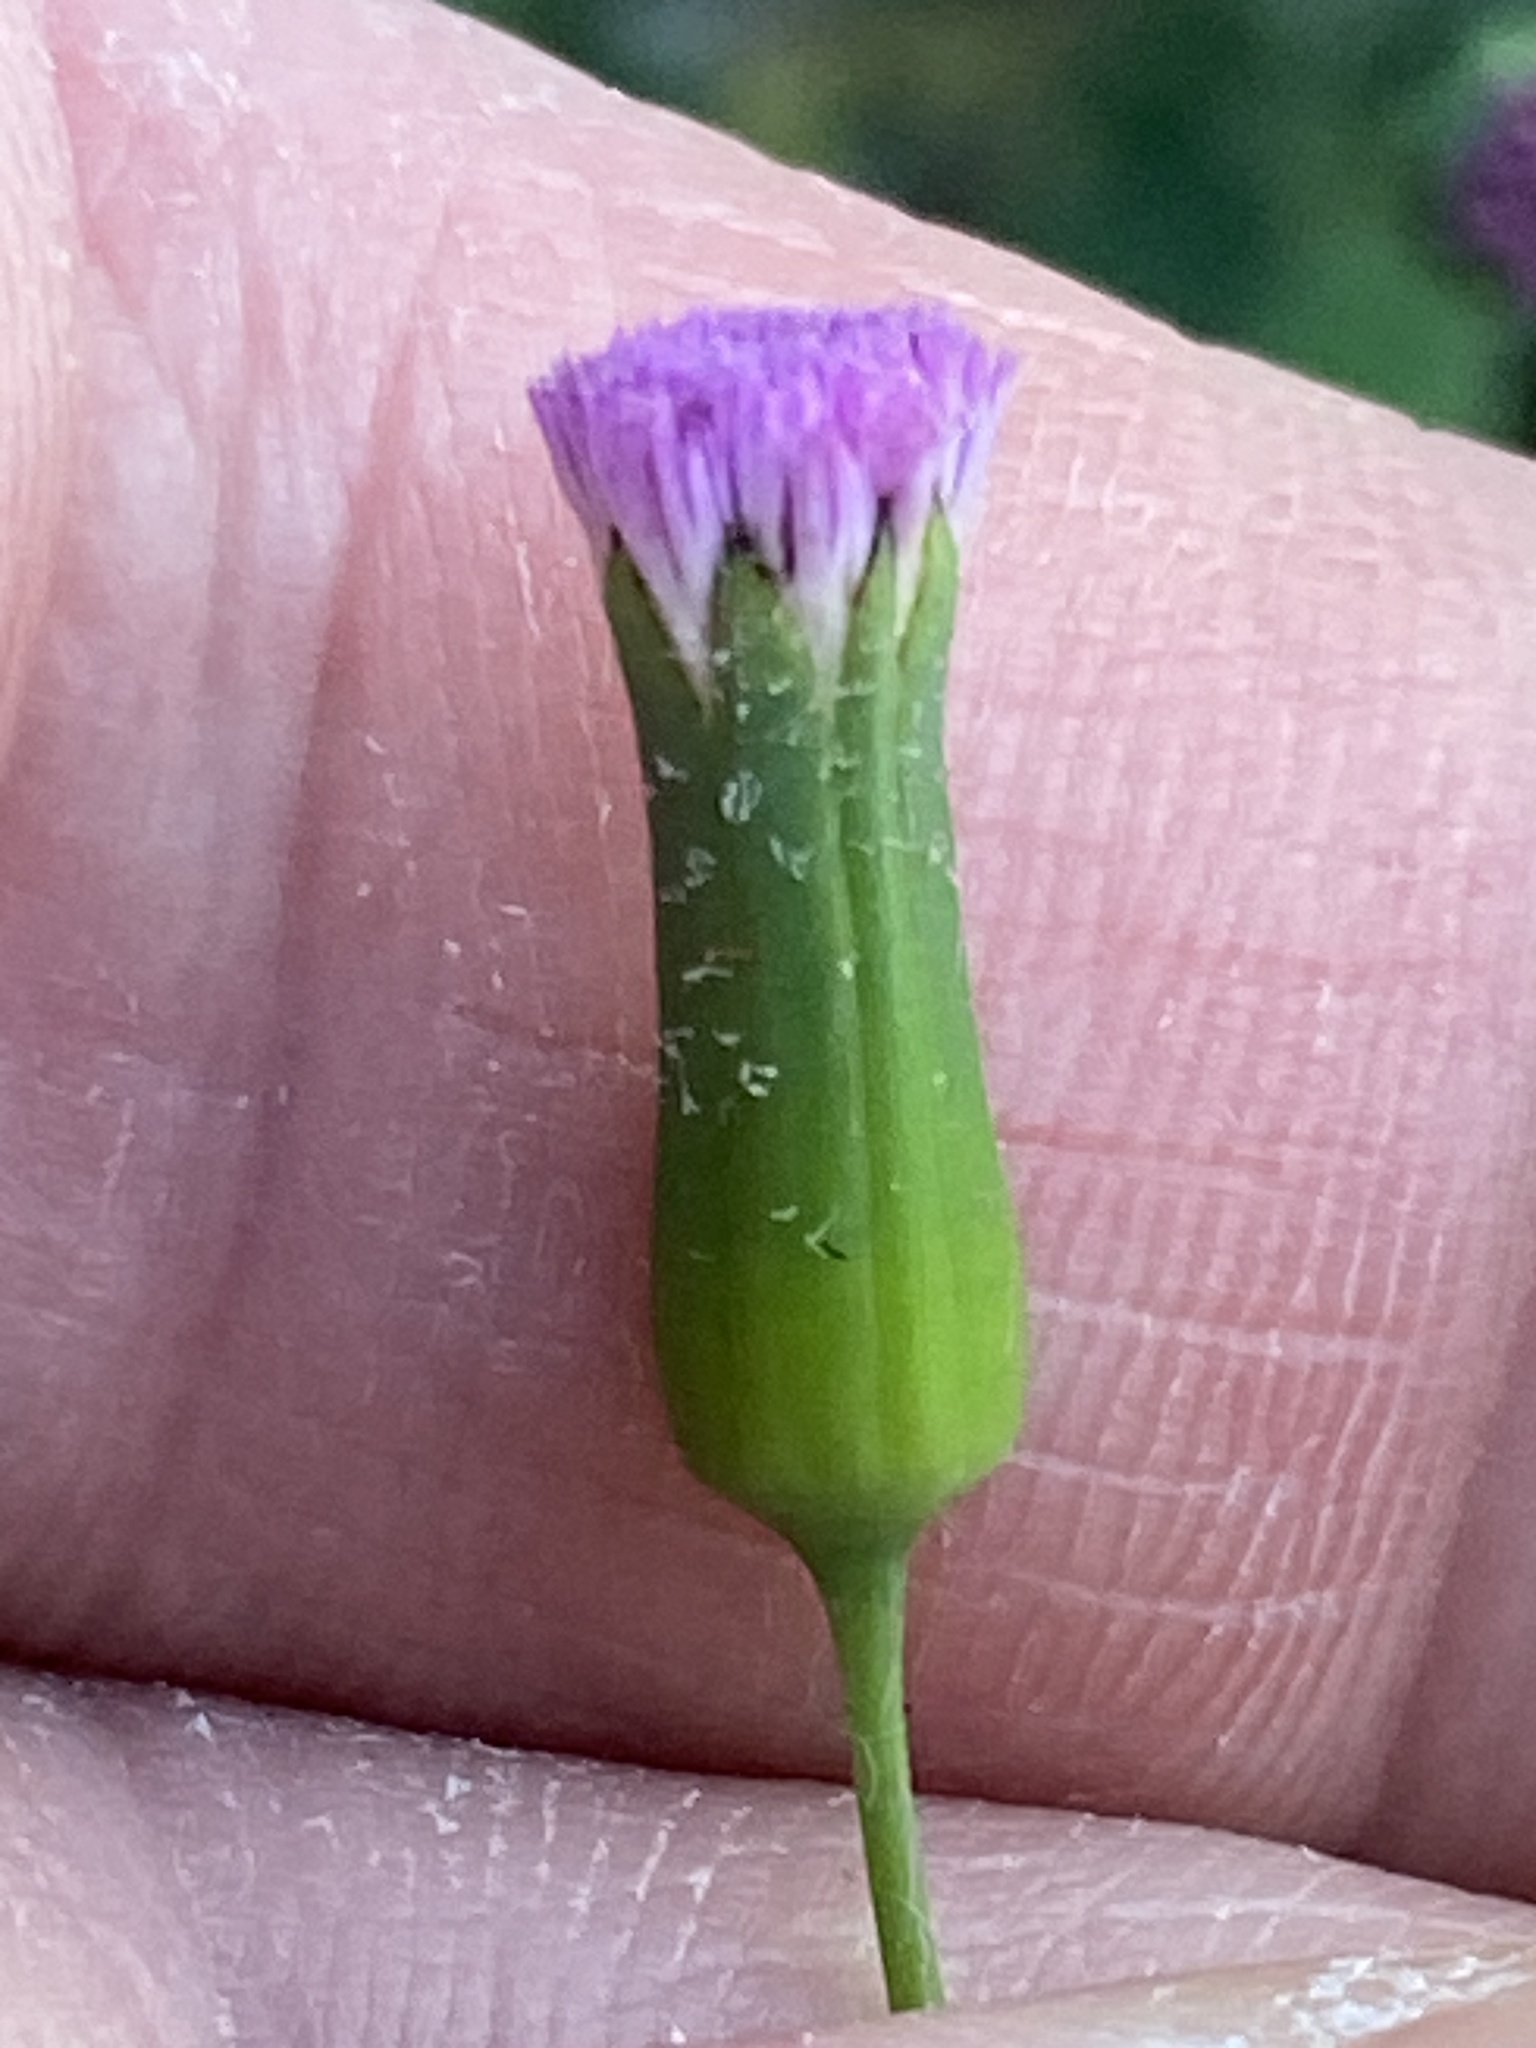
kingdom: Plantae
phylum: Tracheophyta
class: Magnoliopsida
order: Asterales
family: Asteraceae
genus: Emilia
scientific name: Emilia javanica
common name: Tassel-flower
